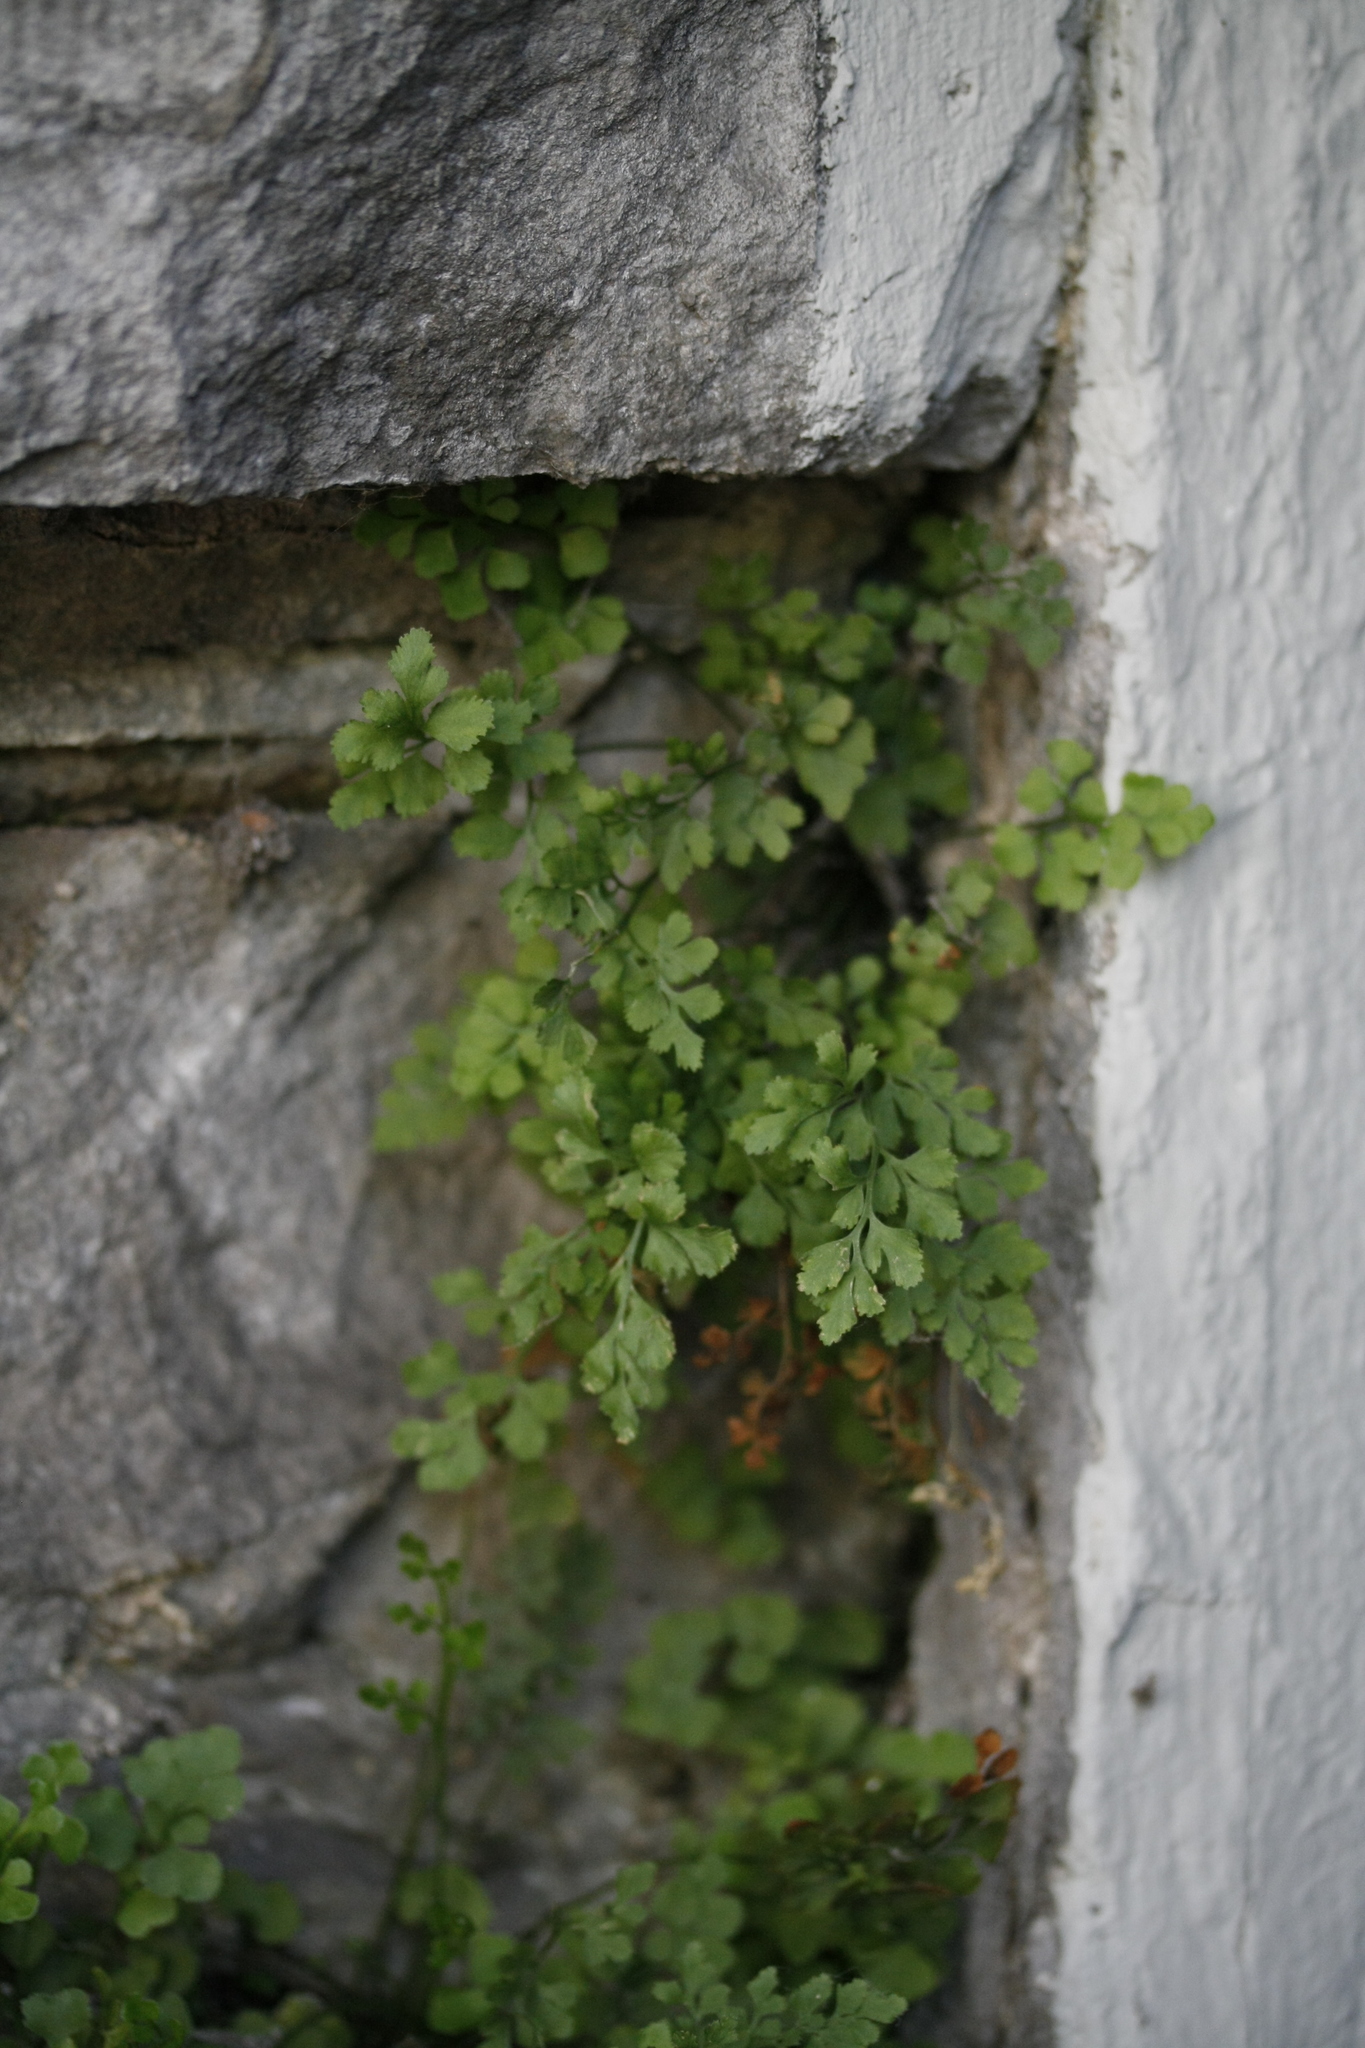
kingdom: Plantae
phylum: Tracheophyta
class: Polypodiopsida
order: Polypodiales
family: Aspleniaceae
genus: Asplenium
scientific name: Asplenium ruta-muraria
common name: Wall-rue
